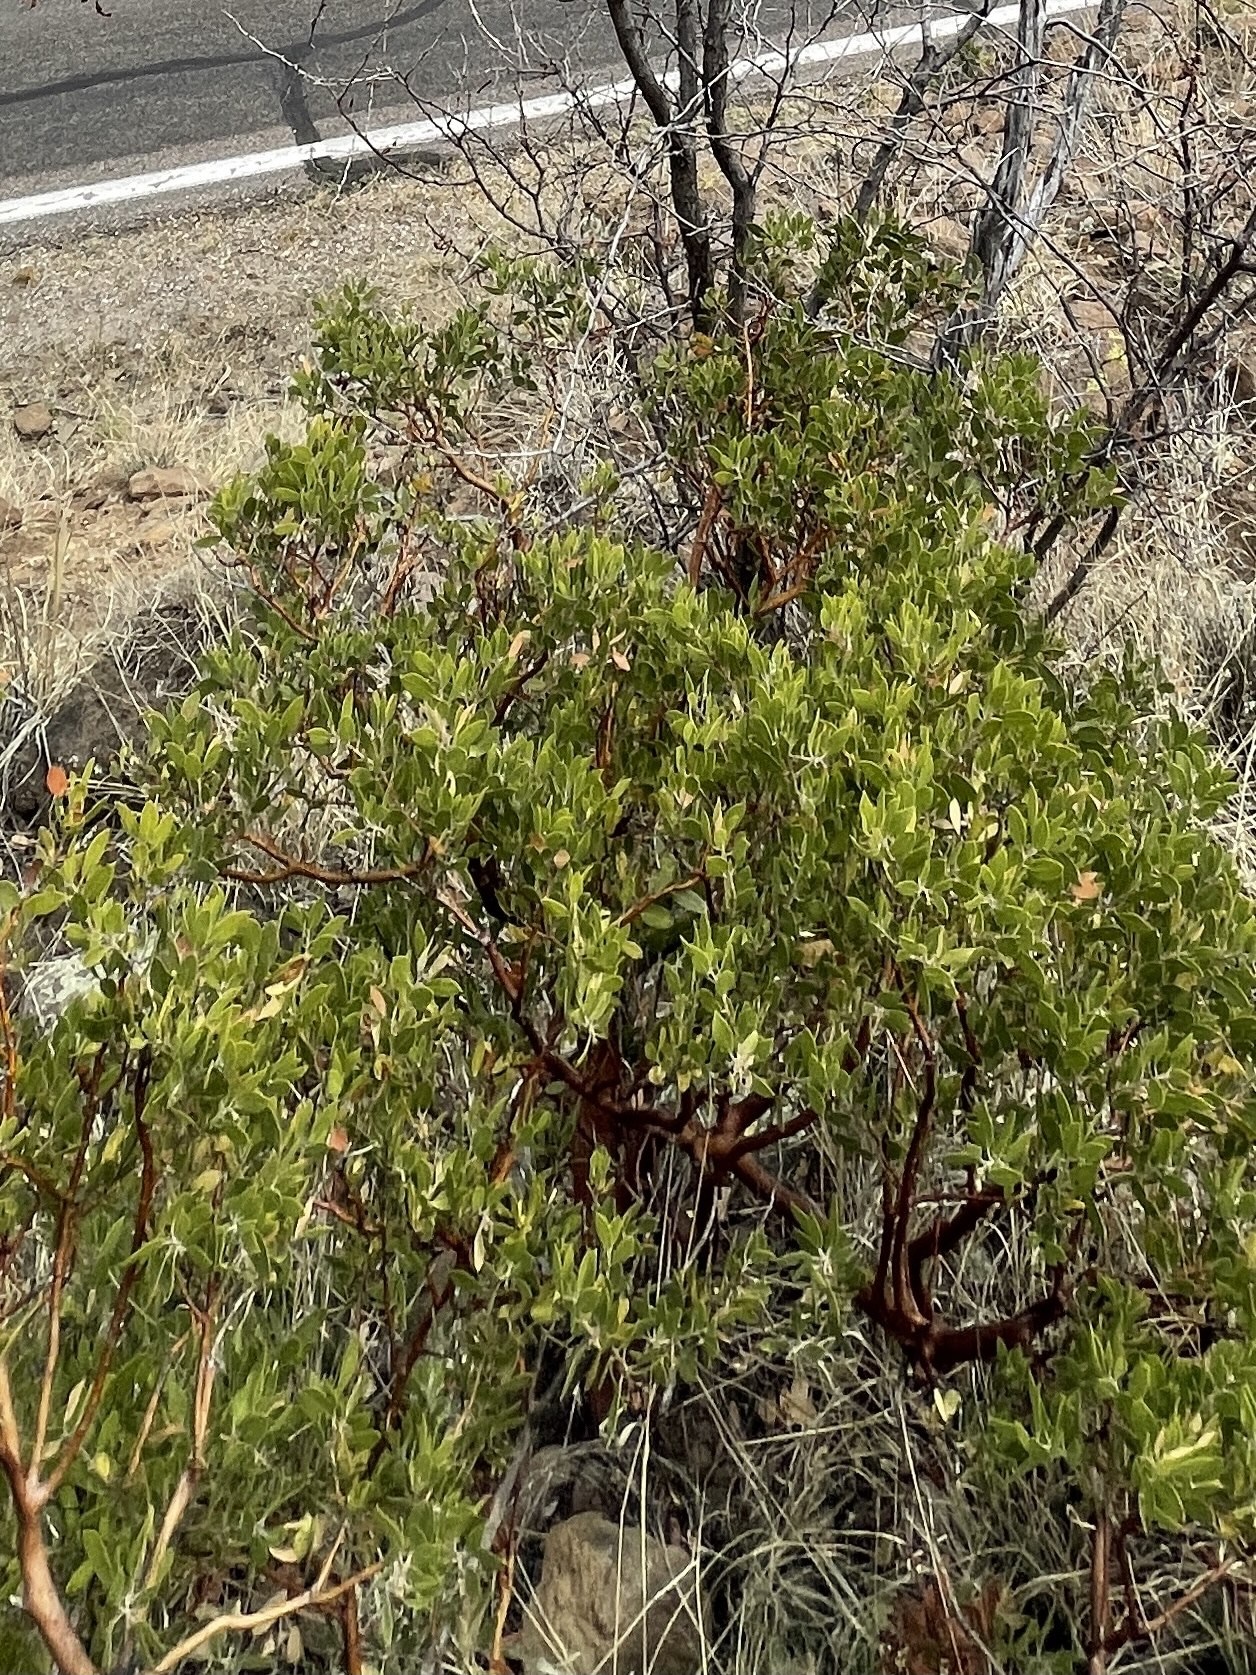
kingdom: Plantae
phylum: Tracheophyta
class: Magnoliopsida
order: Ericales
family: Ericaceae
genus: Arctostaphylos
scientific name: Arctostaphylos pungens
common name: Mexican manzanita
